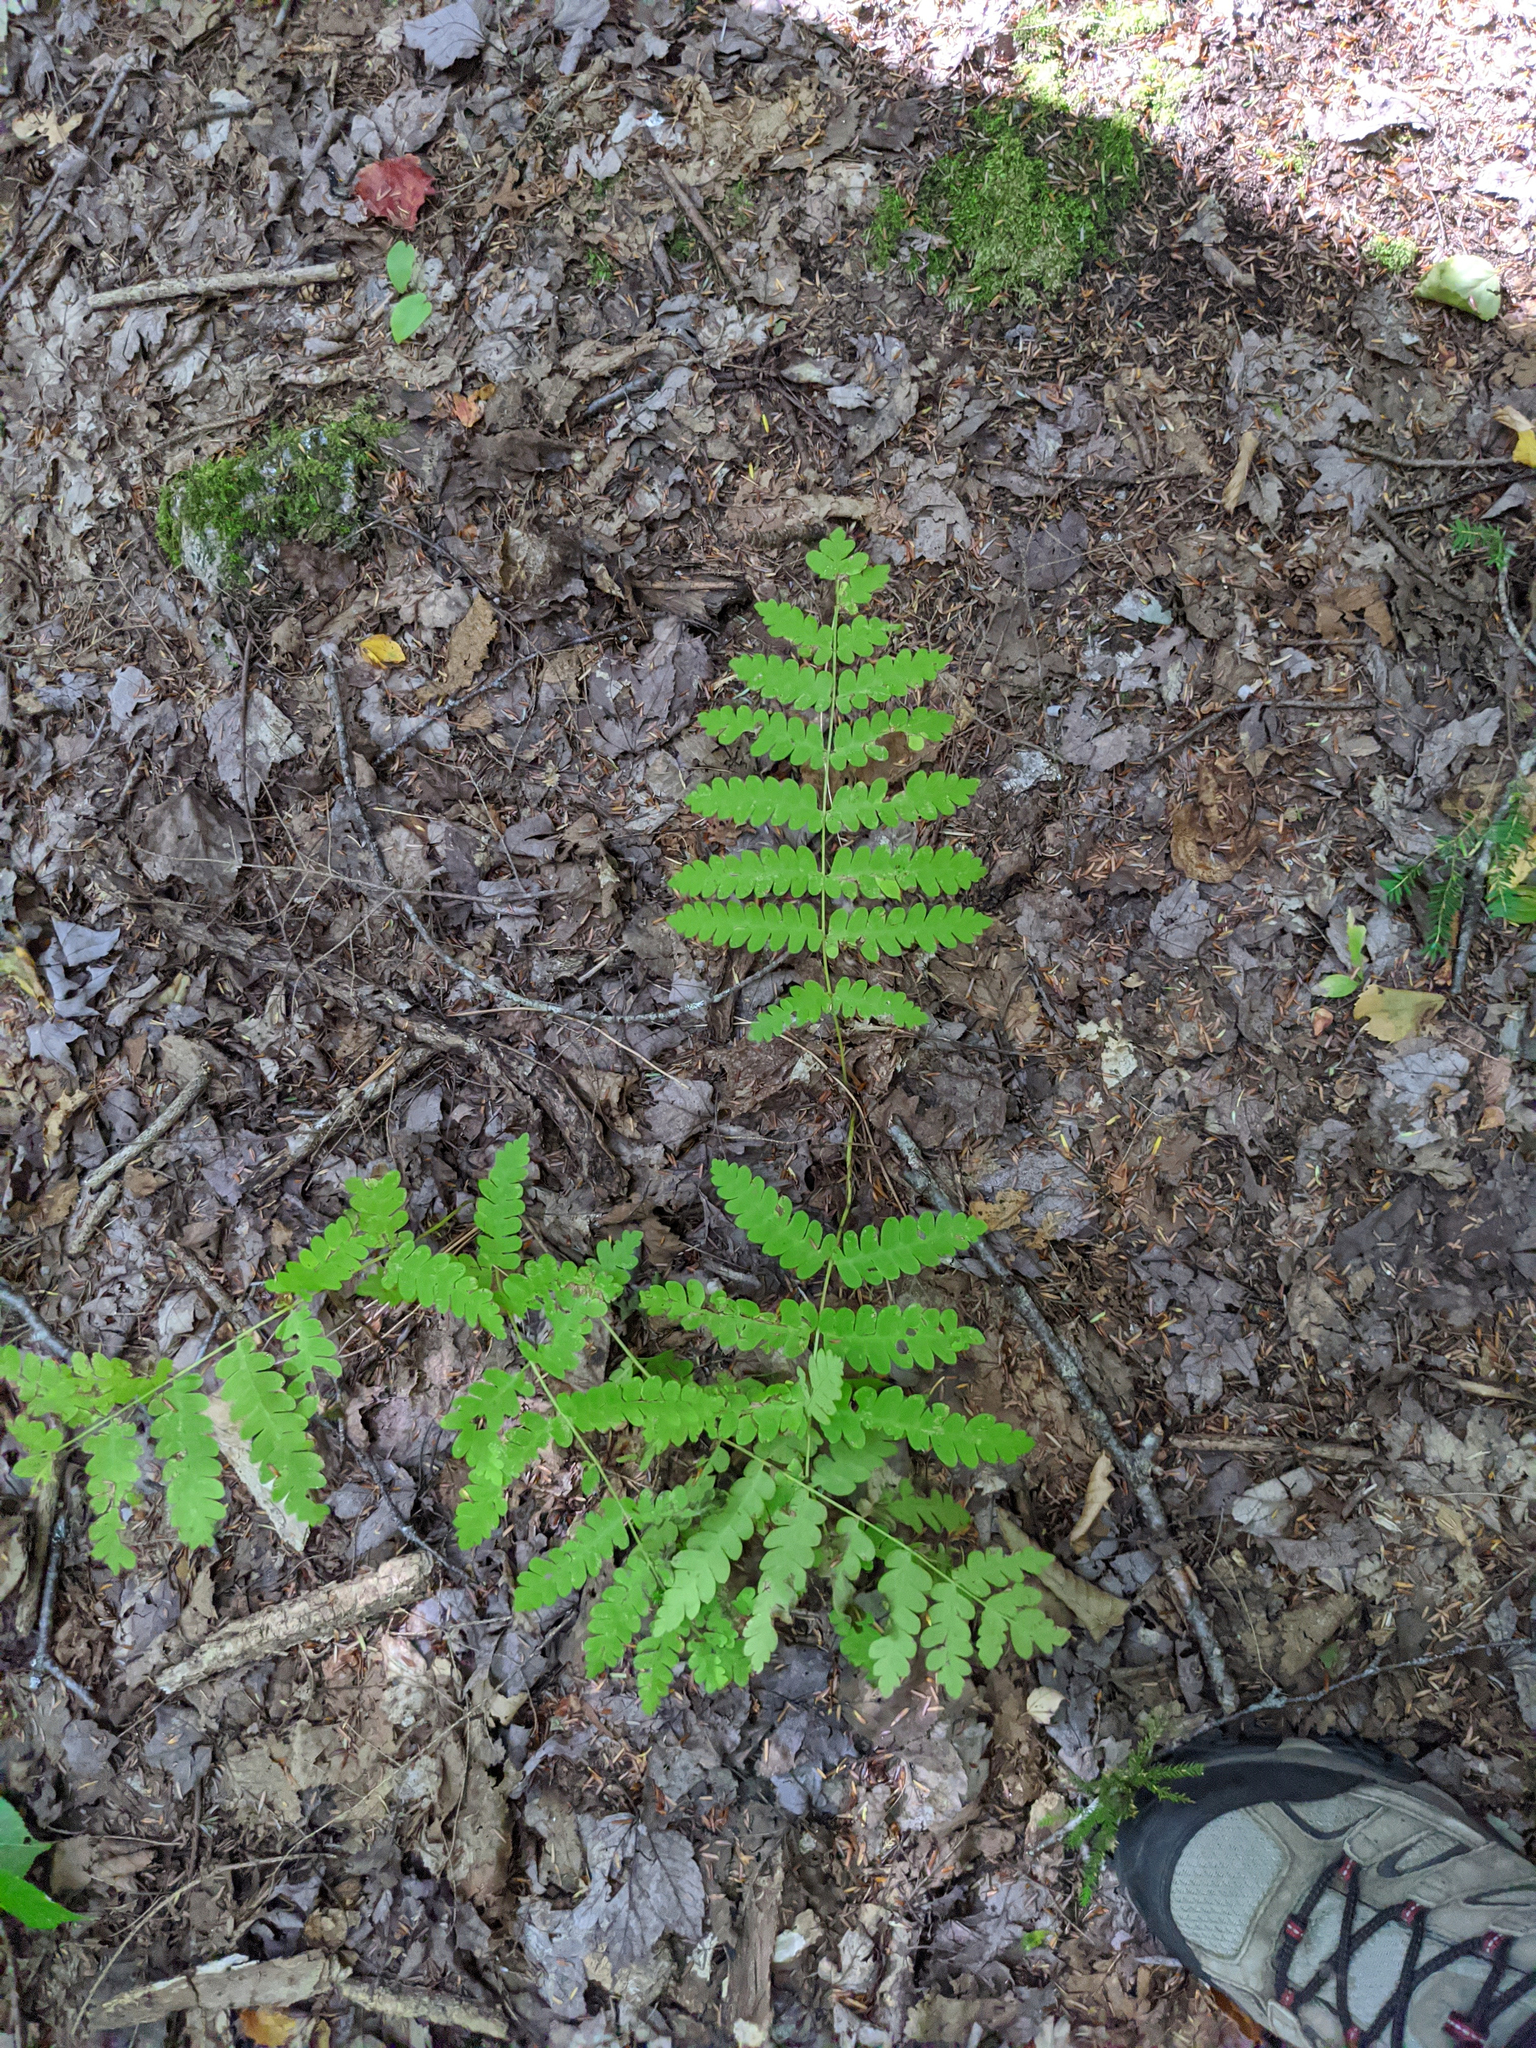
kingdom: Plantae
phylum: Tracheophyta
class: Polypodiopsida
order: Osmundales
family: Osmundaceae
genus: Claytosmunda
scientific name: Claytosmunda claytoniana
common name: Clayton's fern
